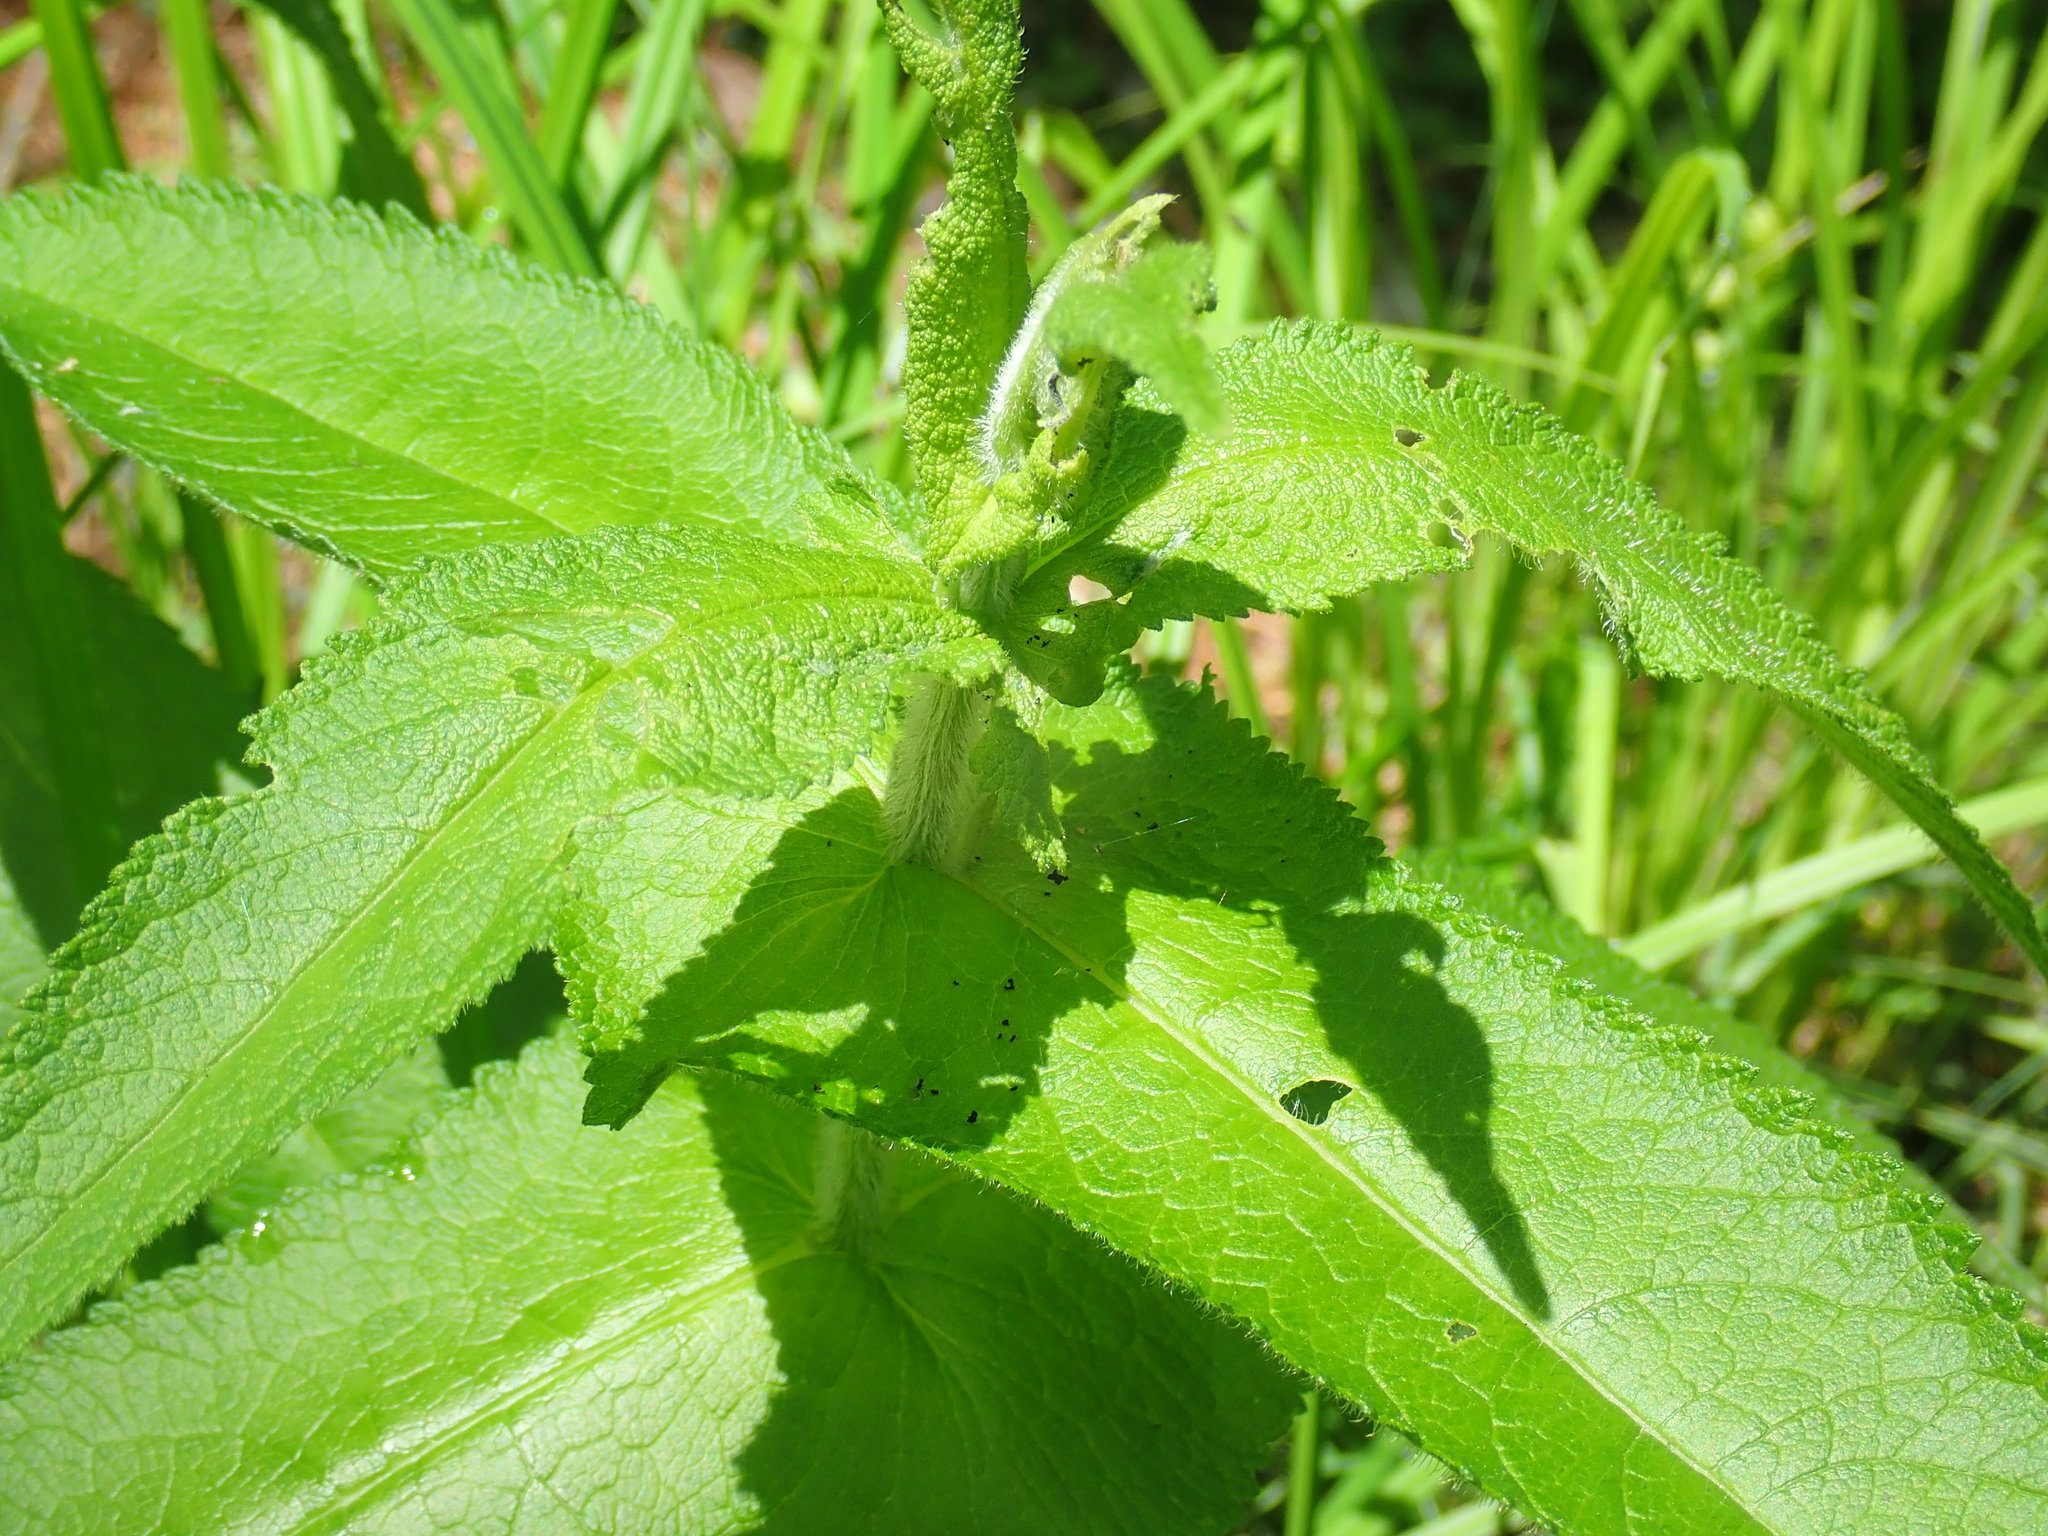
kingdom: Plantae
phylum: Tracheophyta
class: Magnoliopsida
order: Asterales
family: Asteraceae
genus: Eupatorium
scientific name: Eupatorium perfoliatum
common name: Boneset
